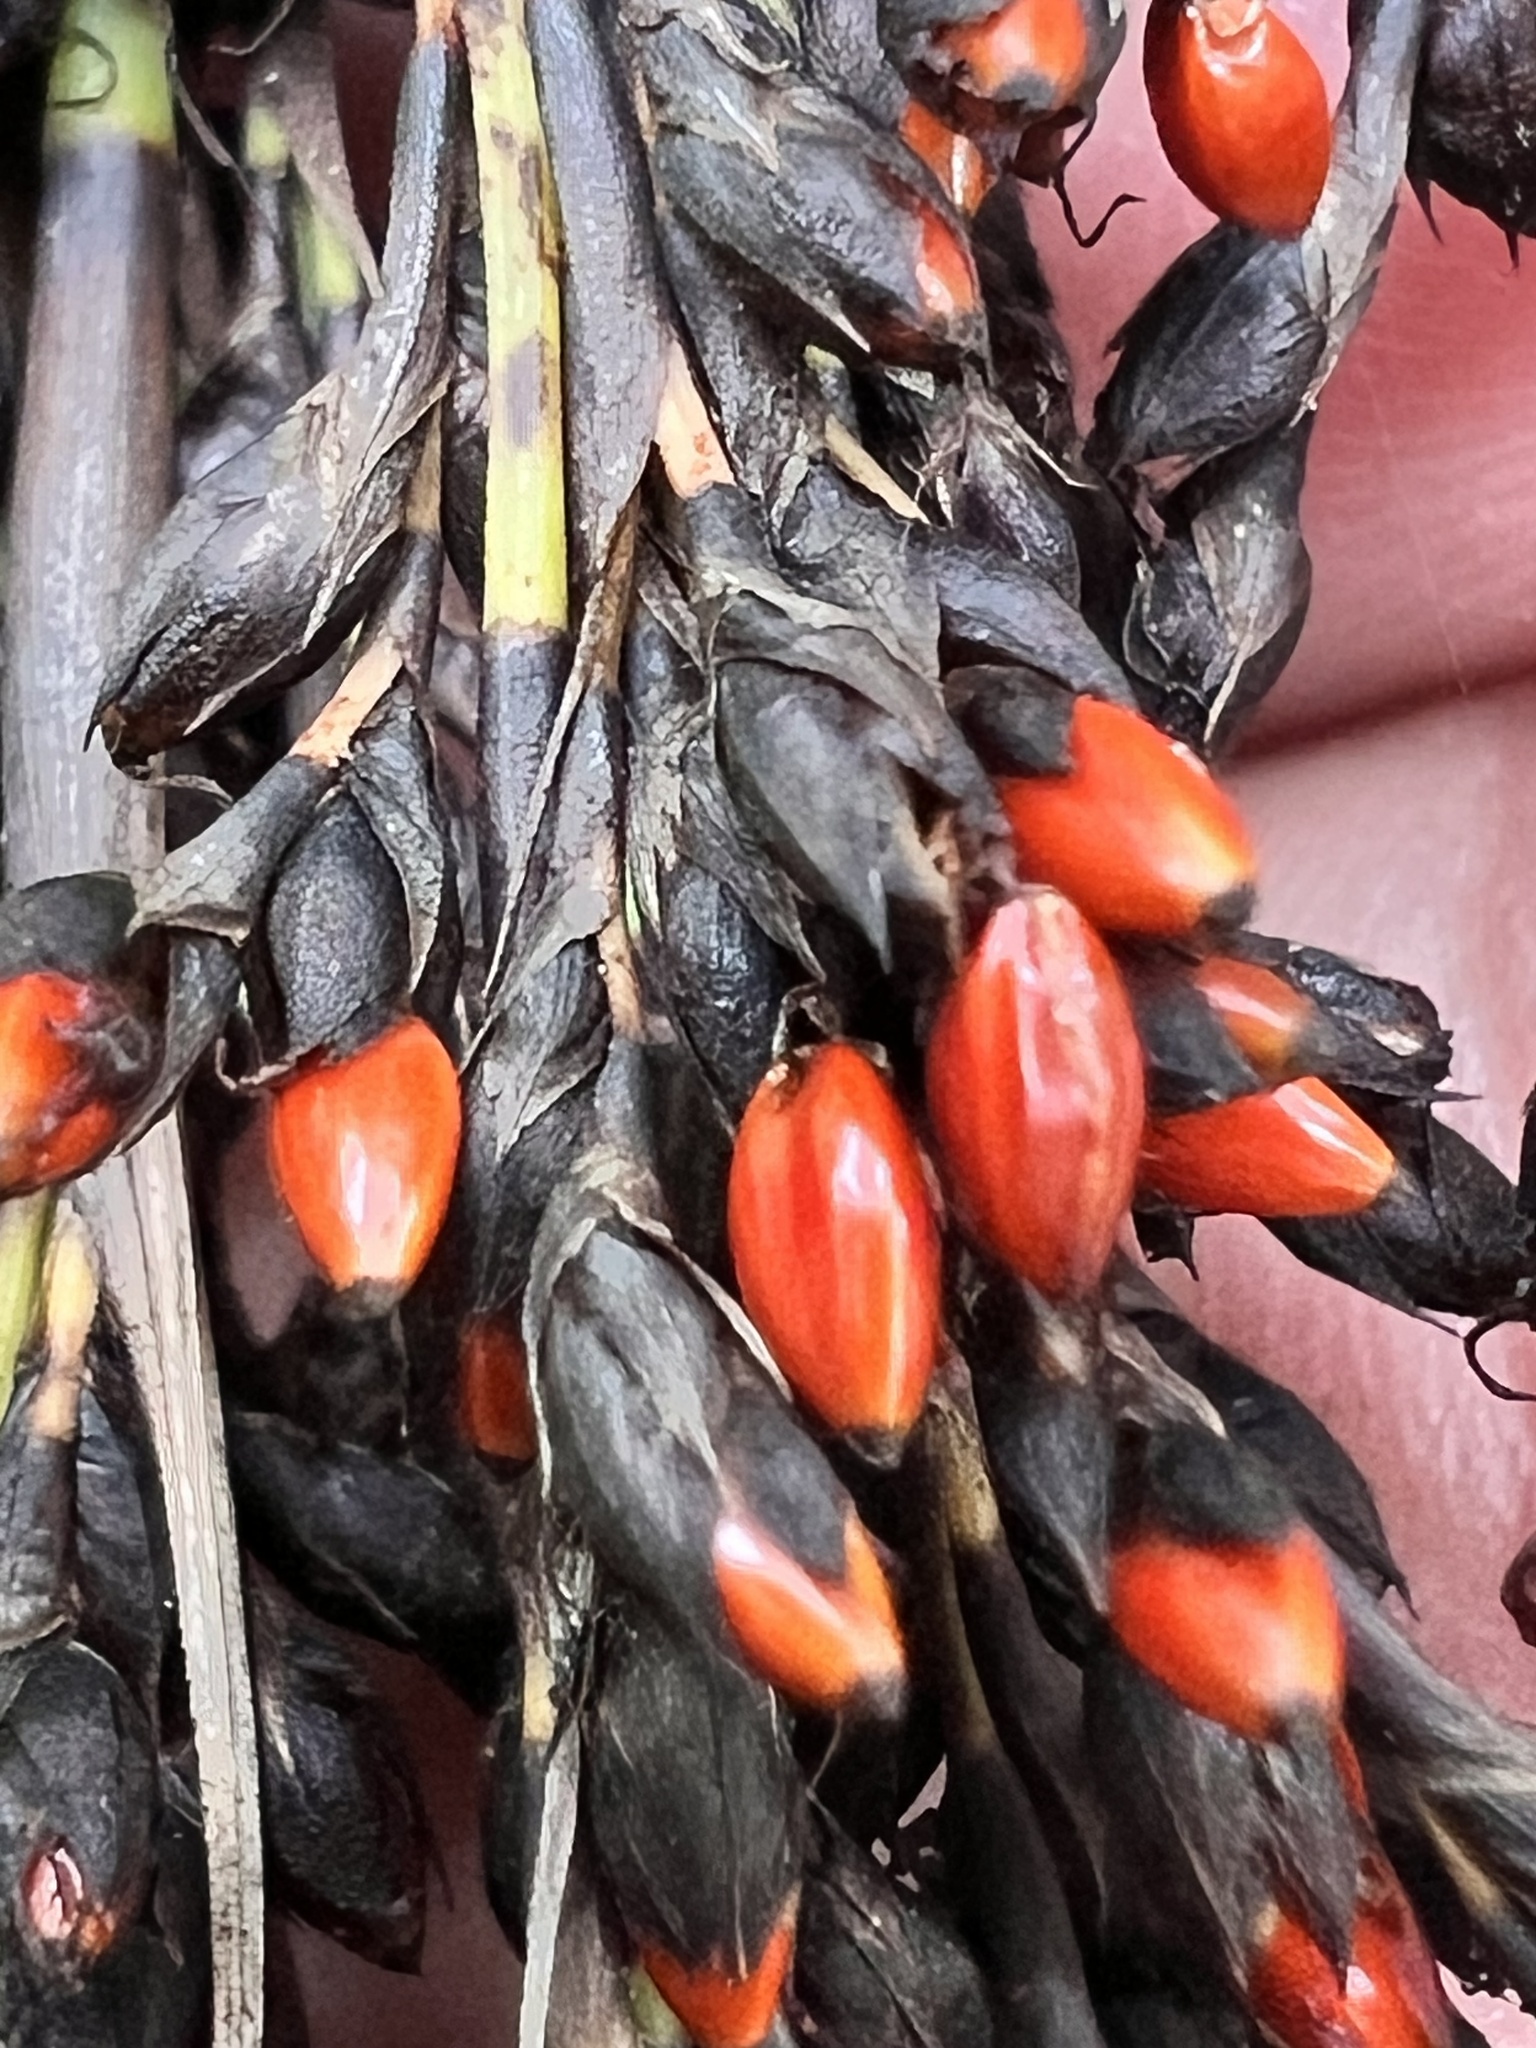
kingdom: Plantae
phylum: Tracheophyta
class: Liliopsida
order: Poales
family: Cyperaceae
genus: Gahnia
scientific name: Gahnia sieberiana
